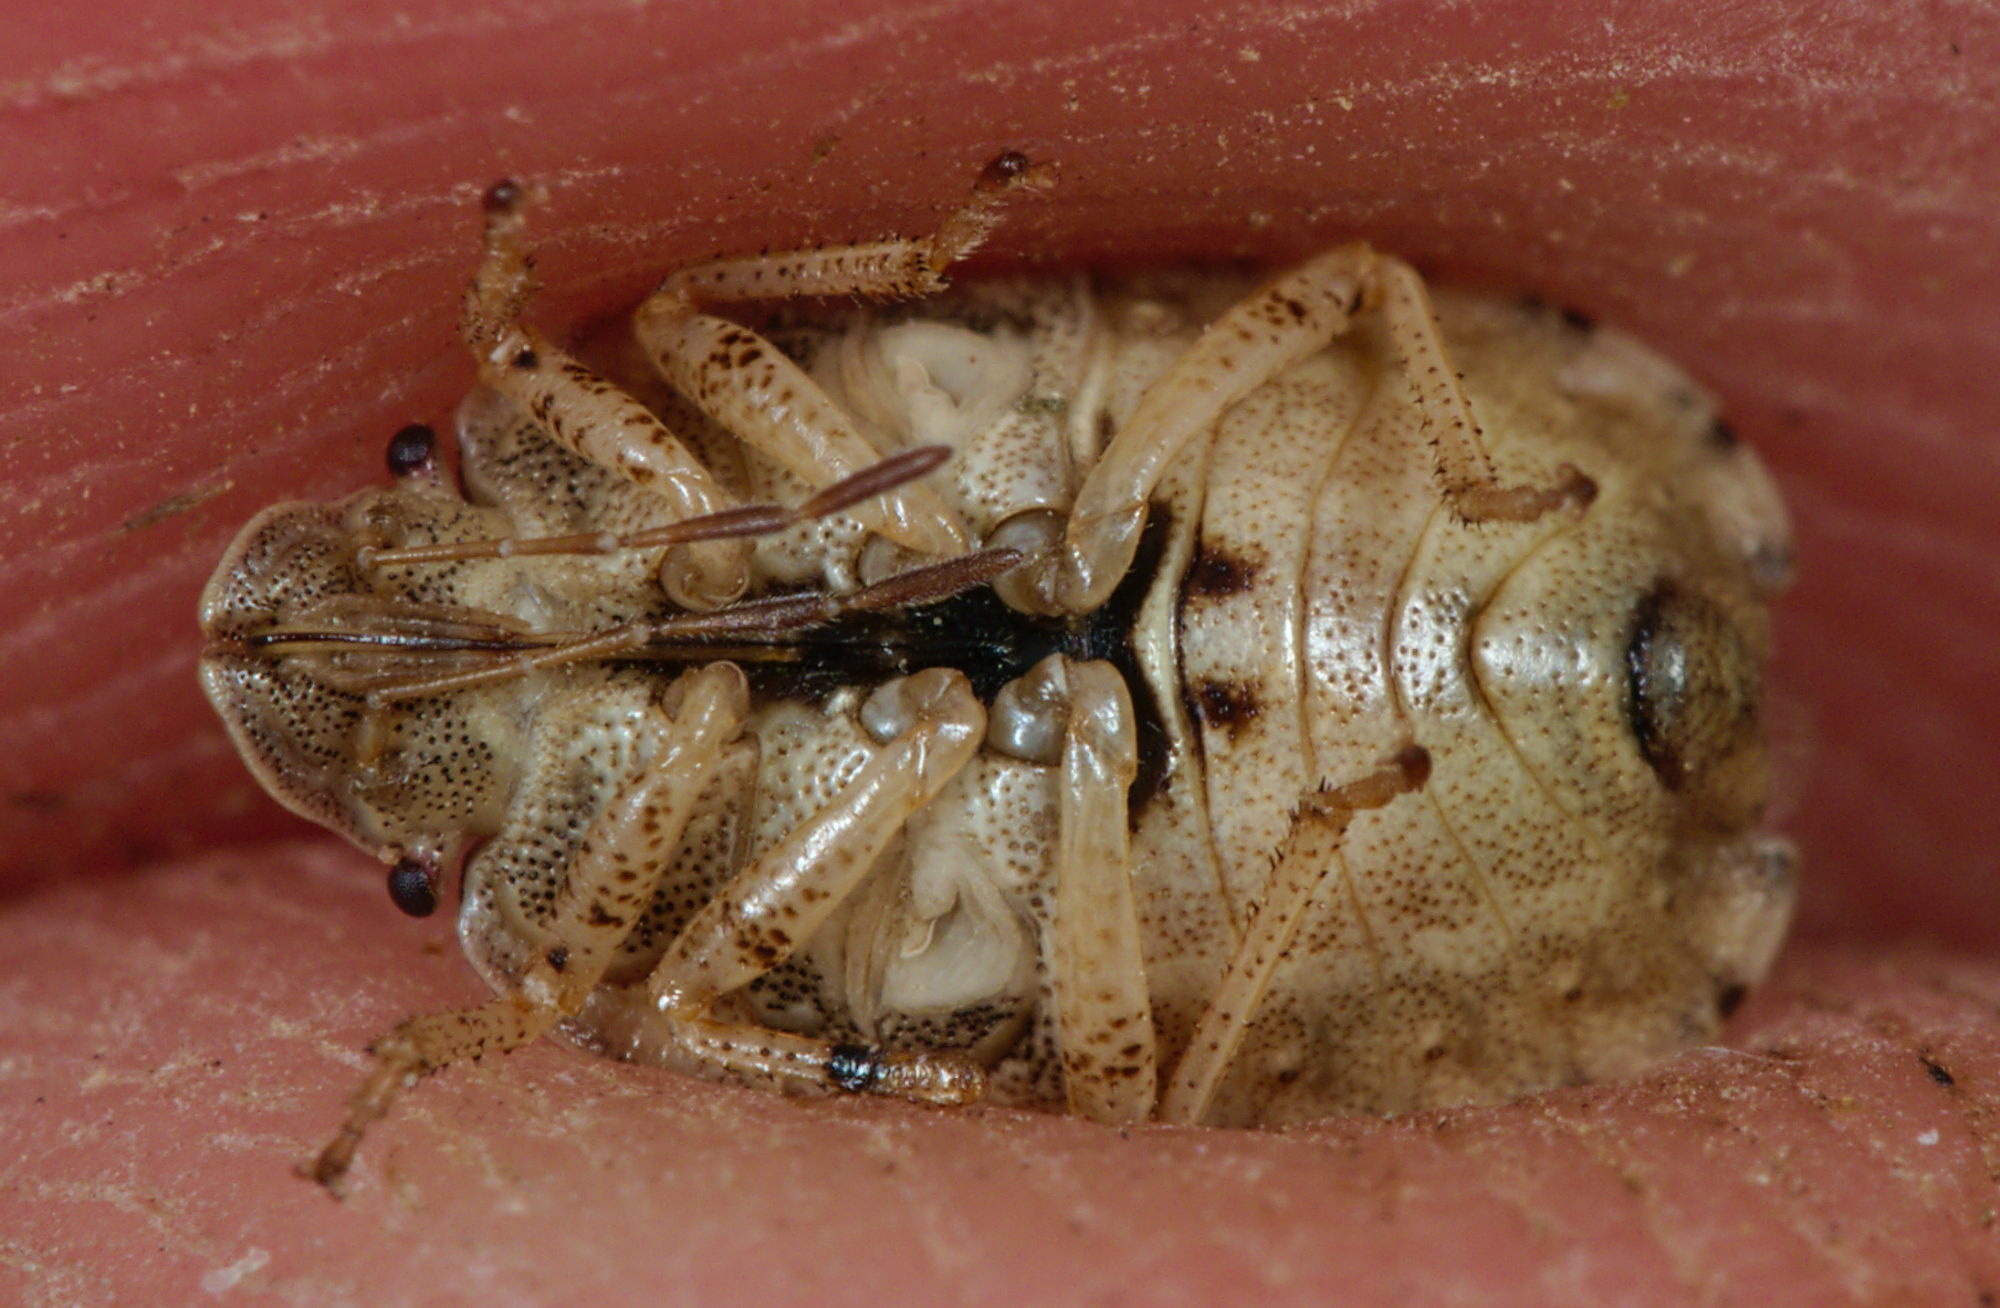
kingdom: Animalia
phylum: Arthropoda
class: Insecta
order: Hemiptera
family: Pentatomidae
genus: Sciocoris
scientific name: Sciocoris macrocephalus
